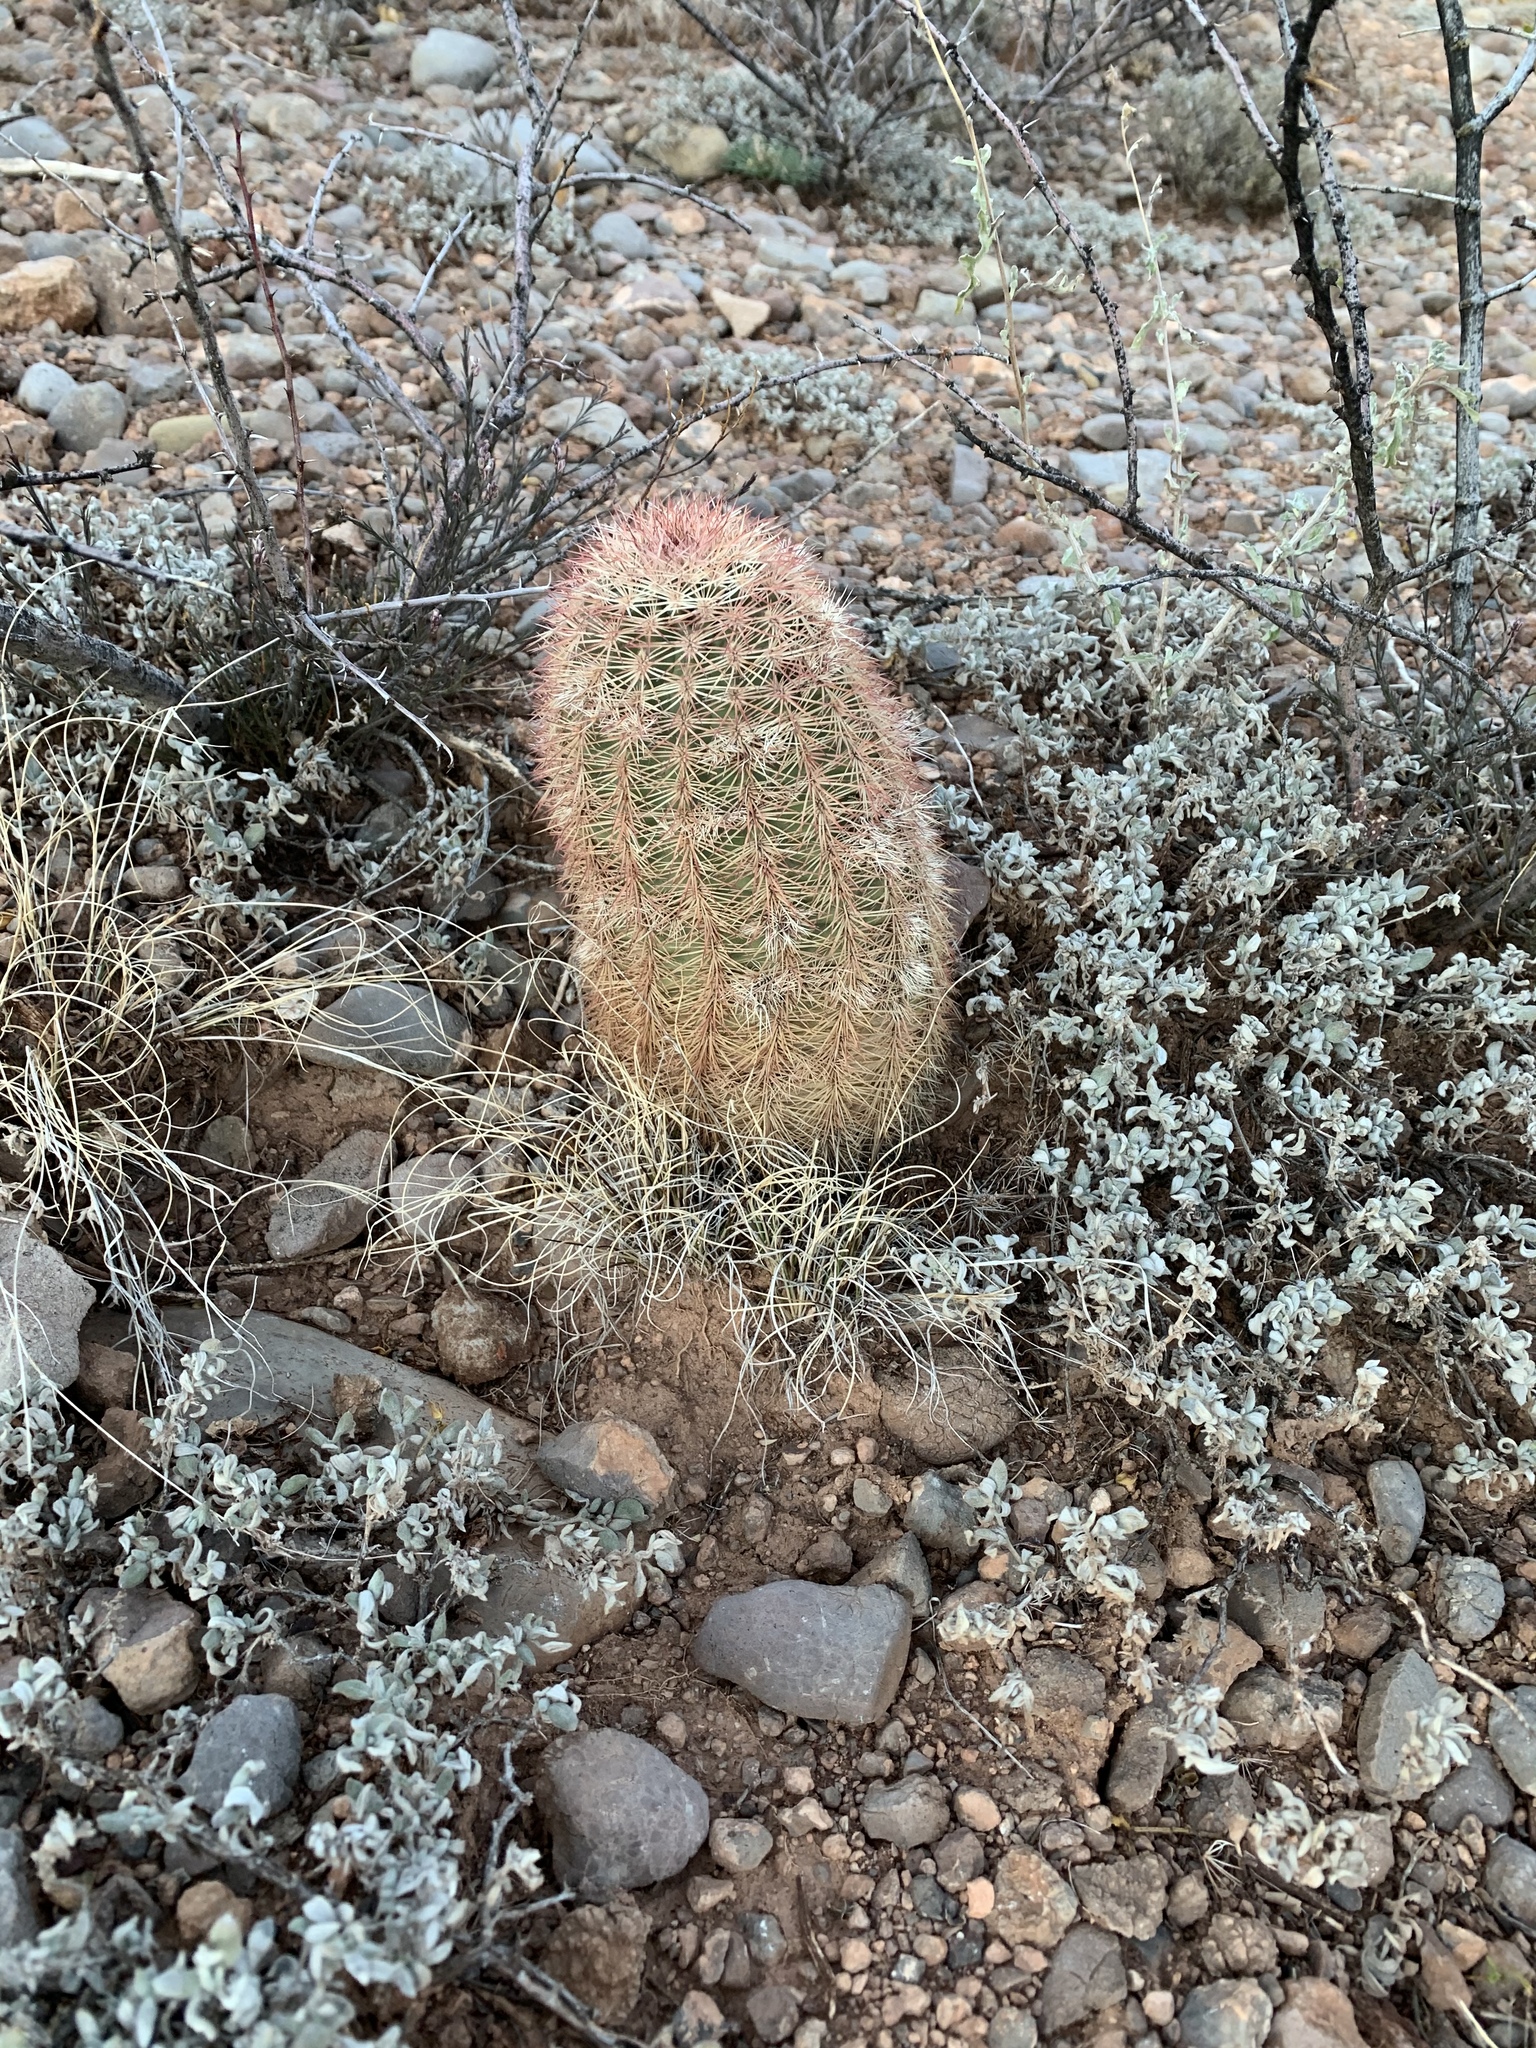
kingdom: Plantae
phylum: Tracheophyta
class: Magnoliopsida
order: Caryophyllales
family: Cactaceae
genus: Echinocereus
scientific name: Echinocereus dasyacanthus
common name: Spiny hedgehog cactus
